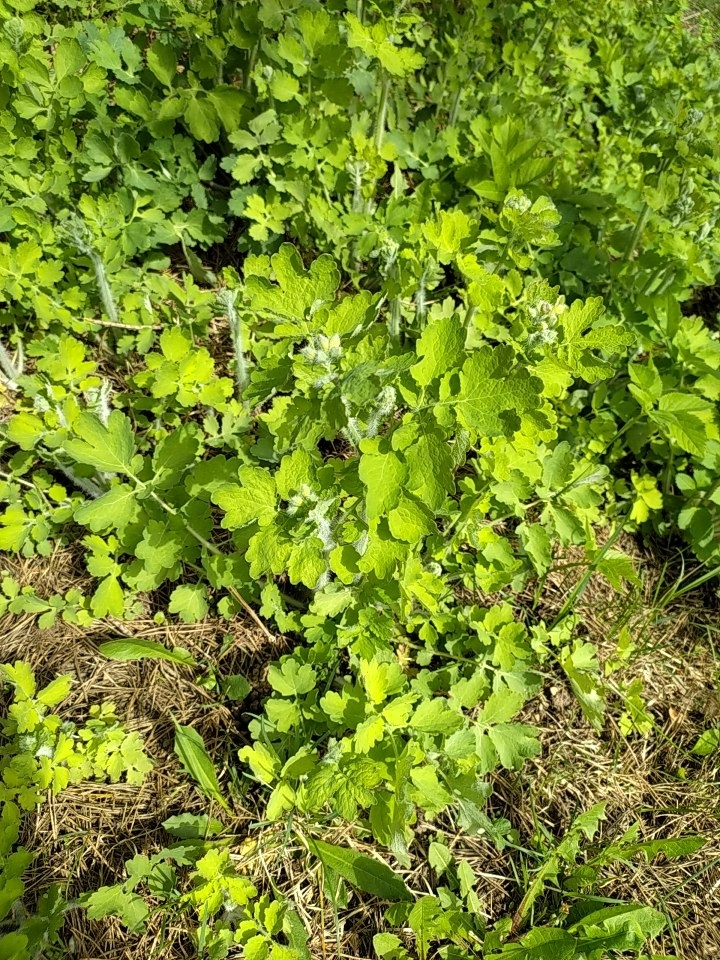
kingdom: Plantae
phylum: Tracheophyta
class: Magnoliopsida
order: Ranunculales
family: Papaveraceae
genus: Chelidonium
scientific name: Chelidonium majus
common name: Greater celandine
